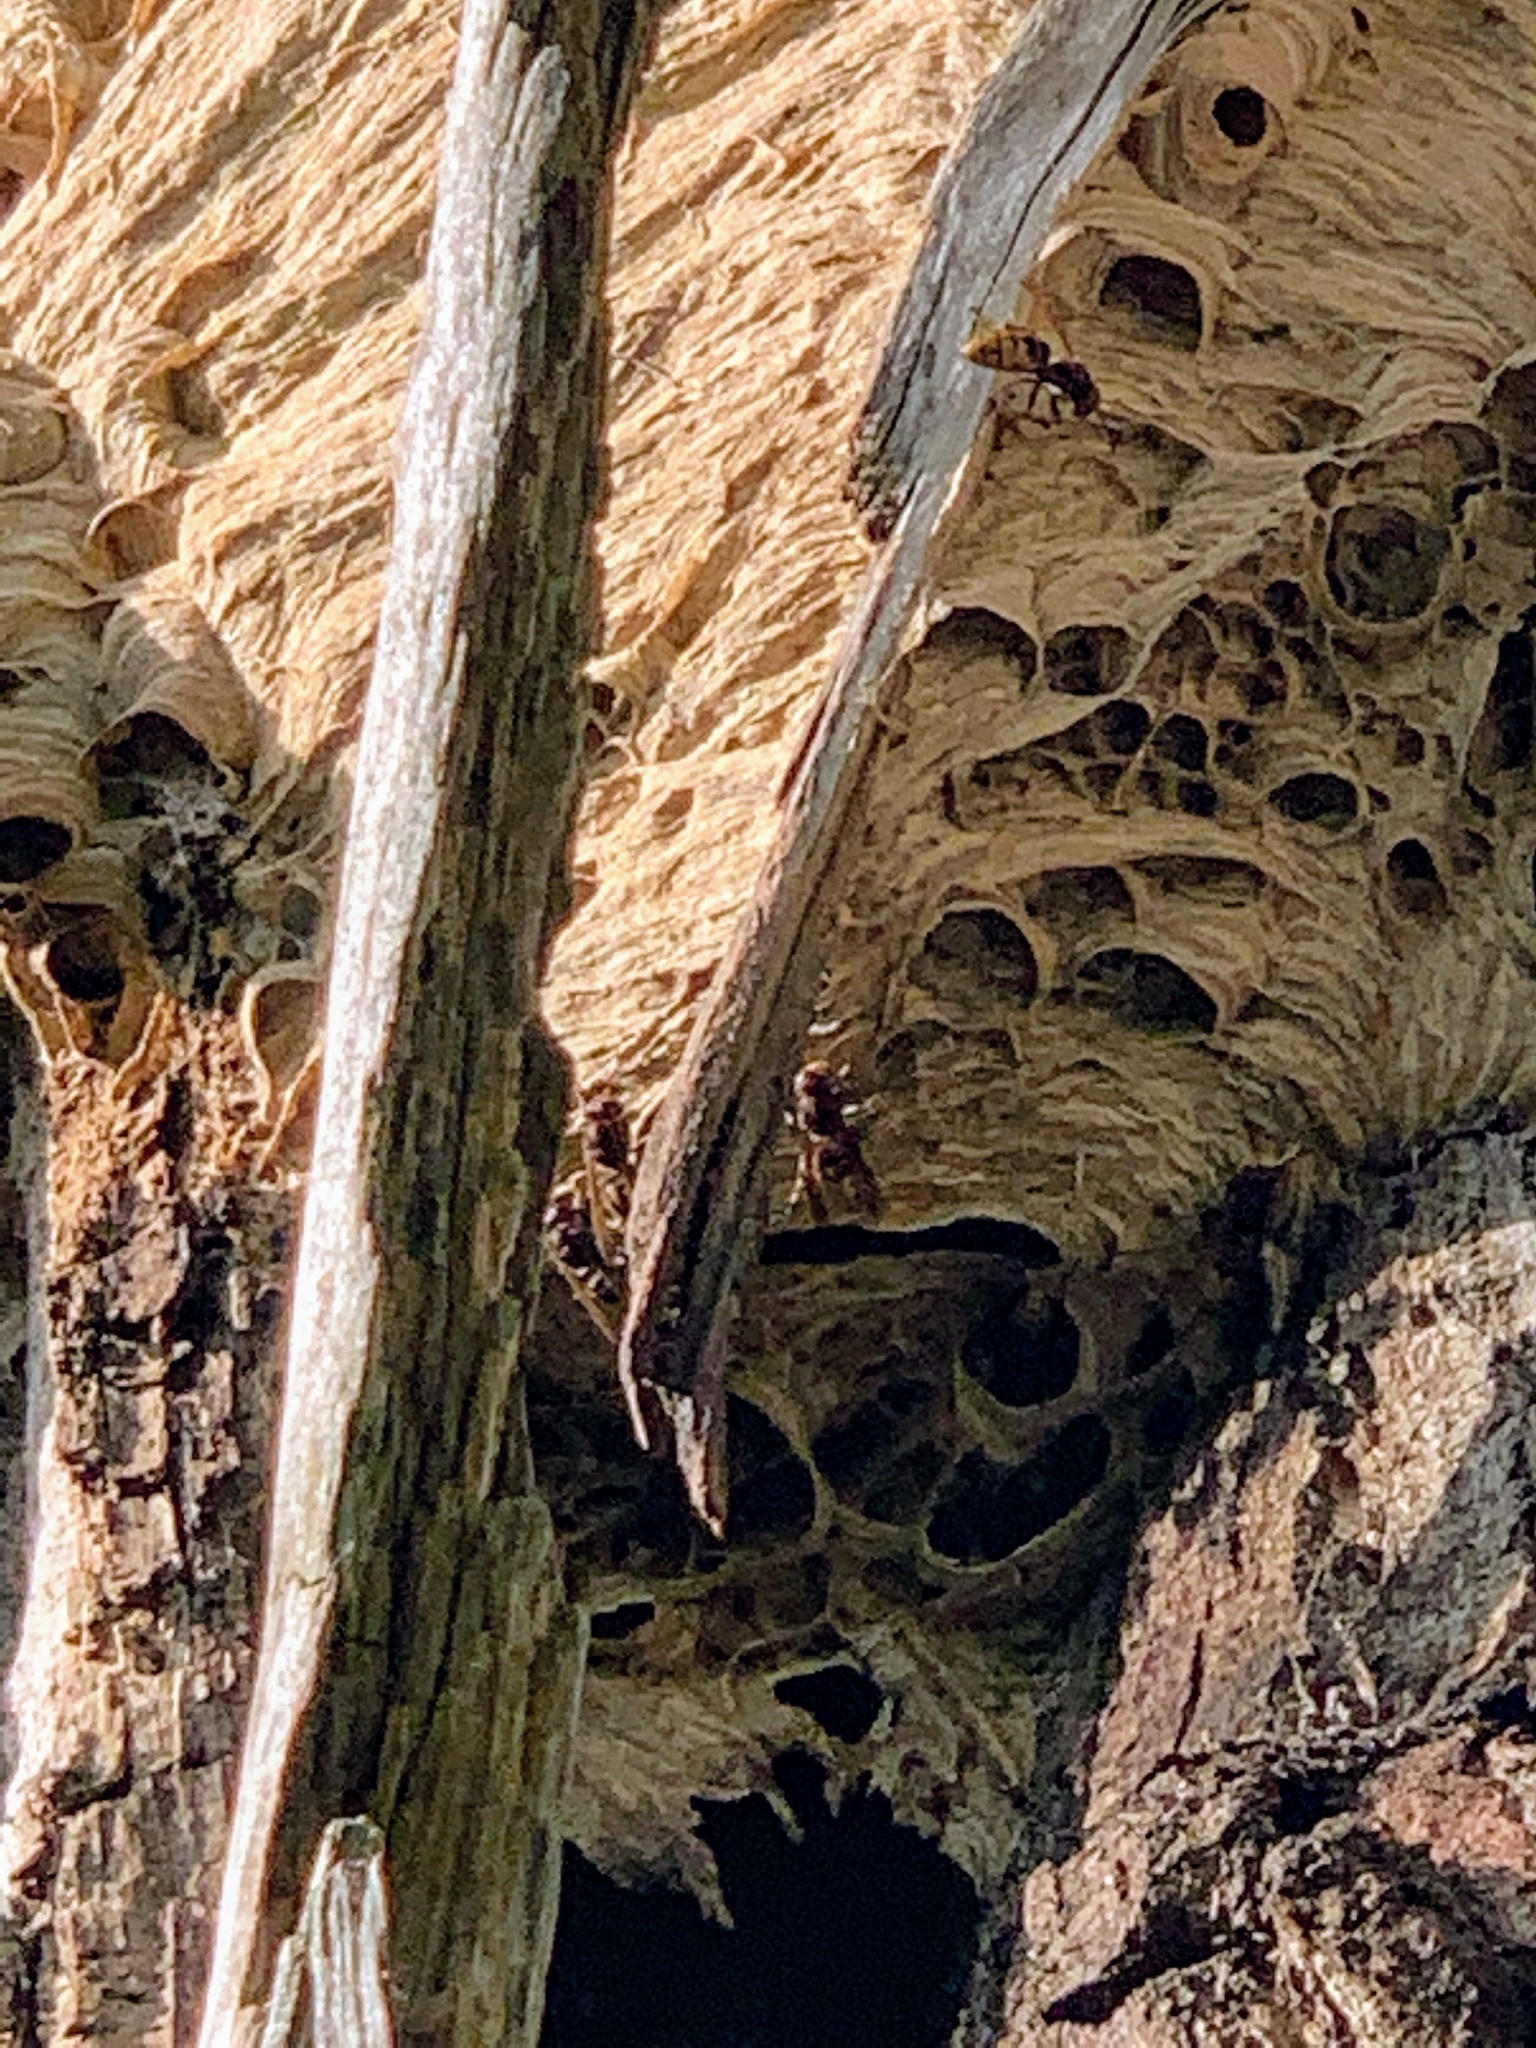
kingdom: Animalia
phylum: Arthropoda
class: Insecta
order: Hymenoptera
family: Vespidae
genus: Vespa
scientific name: Vespa crabro
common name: Hornet
